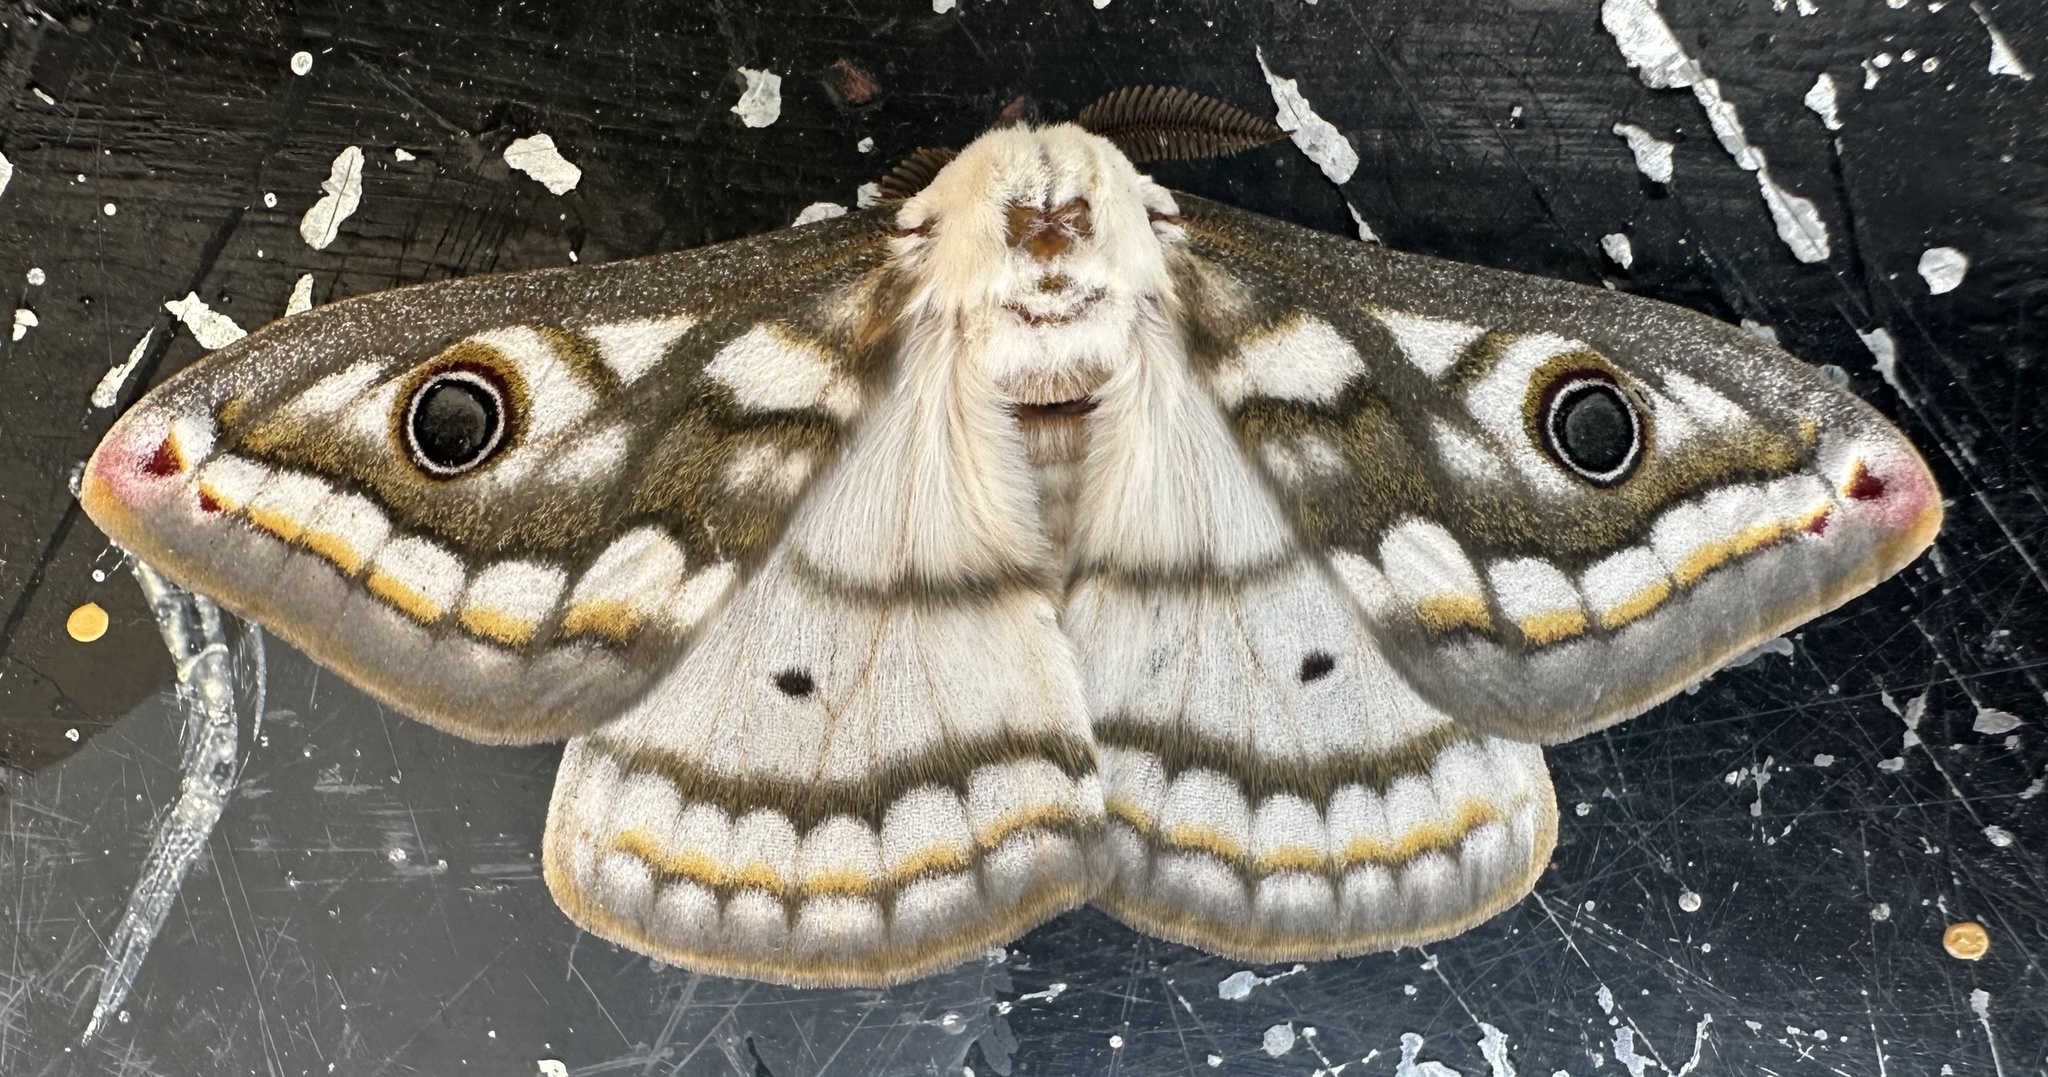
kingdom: Animalia
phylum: Arthropoda
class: Insecta
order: Lepidoptera
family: Saturniidae
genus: Heniocha
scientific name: Heniocha bioculata
